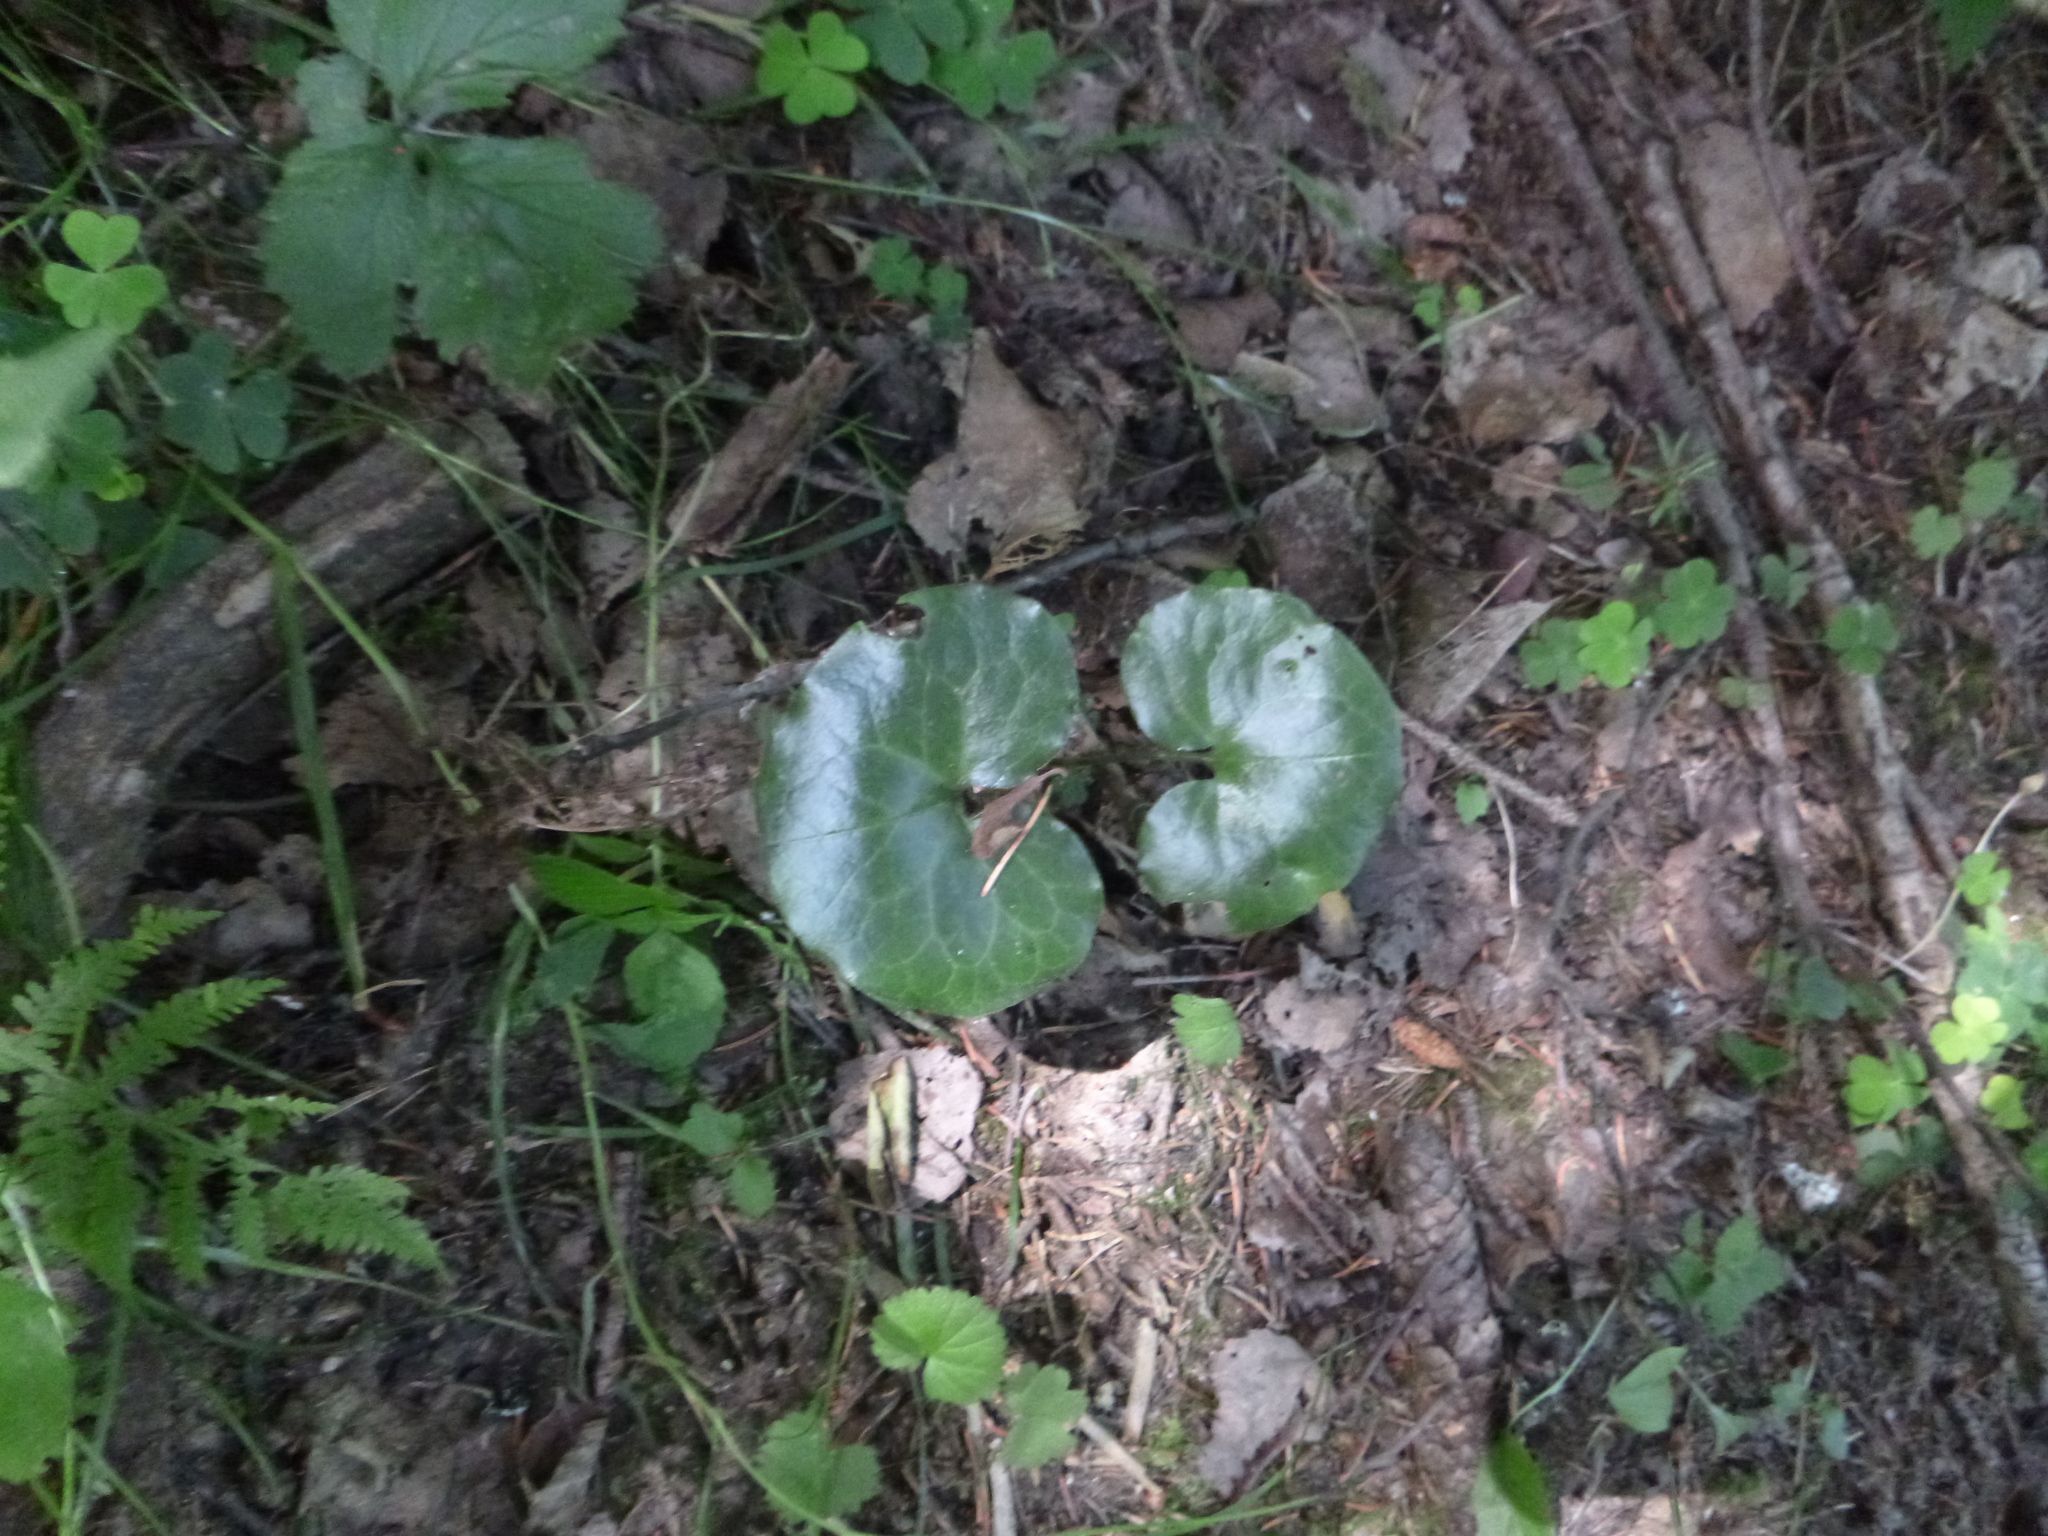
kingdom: Plantae
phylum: Tracheophyta
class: Magnoliopsida
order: Asterales
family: Asteraceae
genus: Prenanthes
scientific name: Prenanthes purpurea
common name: Purple lettuce
